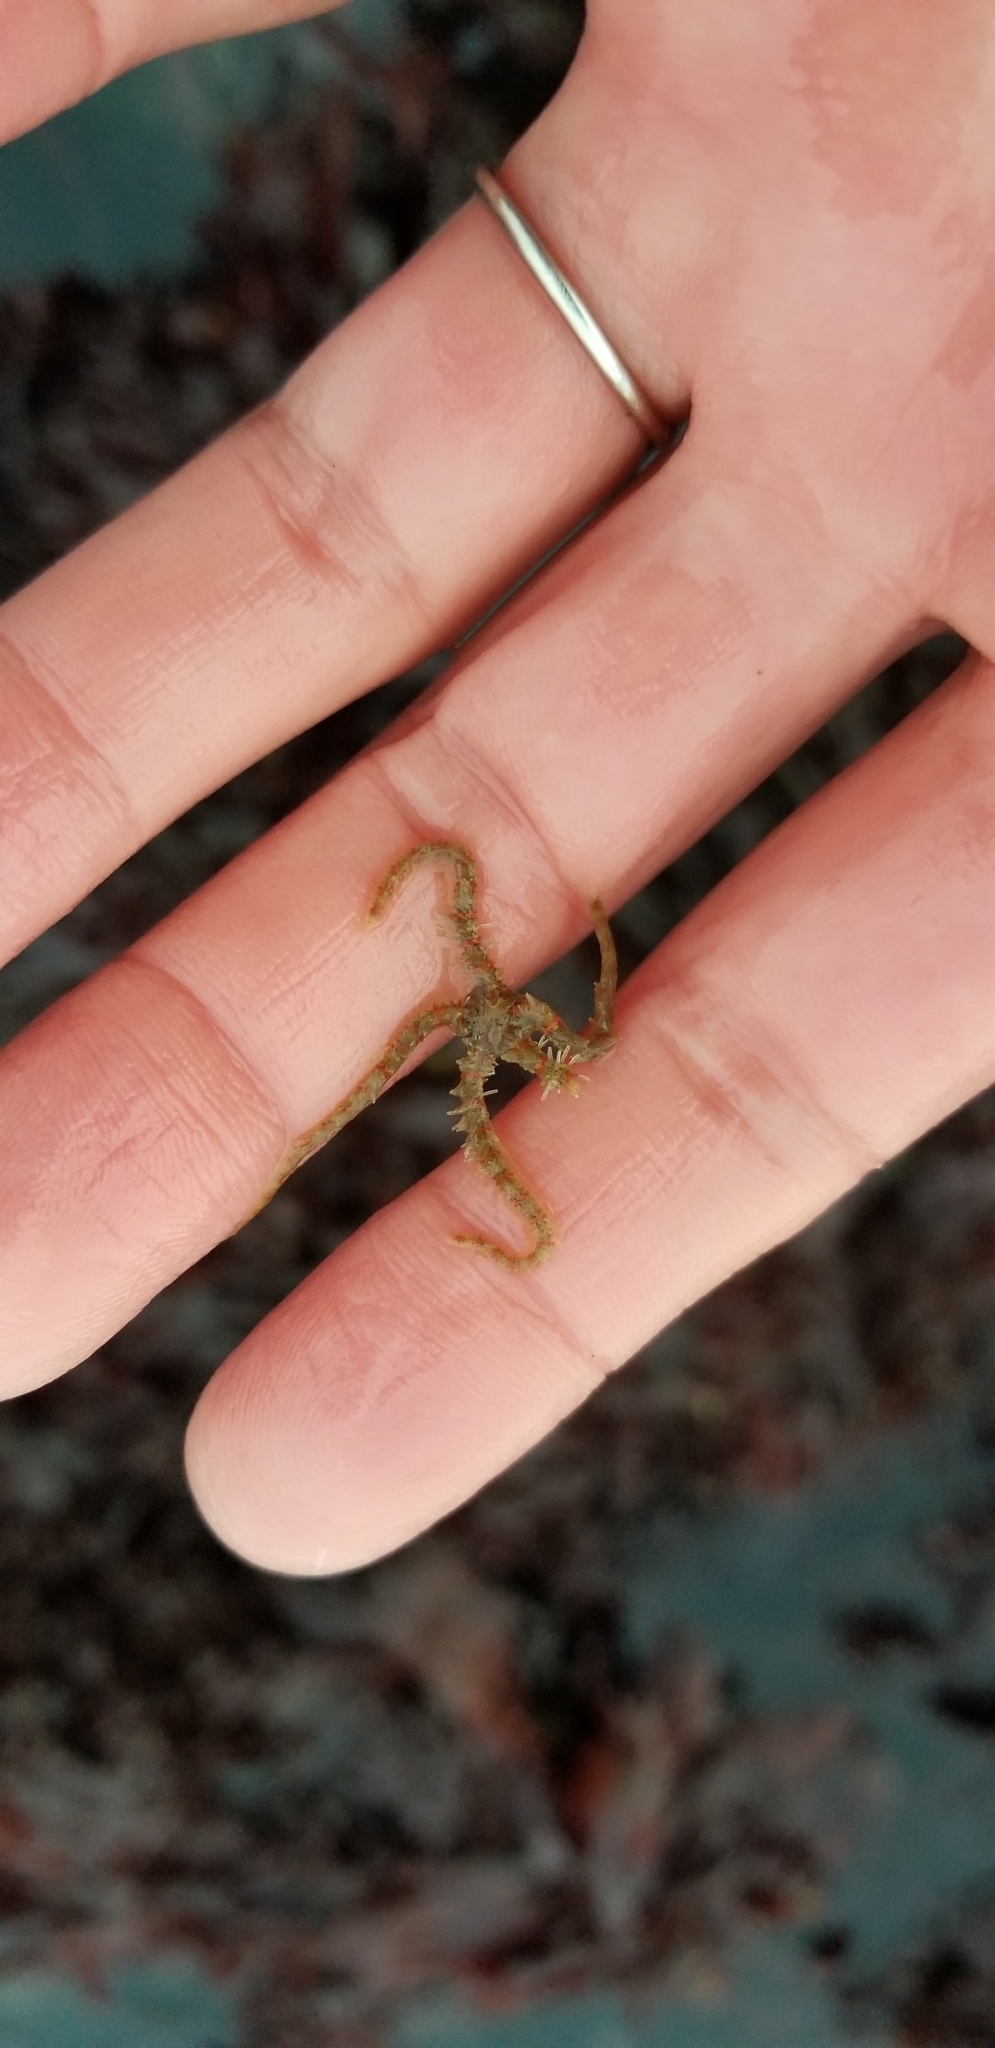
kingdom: Animalia
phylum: Echinodermata
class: Ophiuroidea
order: Amphilepidida
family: Ophiotrichidae
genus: Ophiothrix
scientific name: Ophiothrix spiculata
